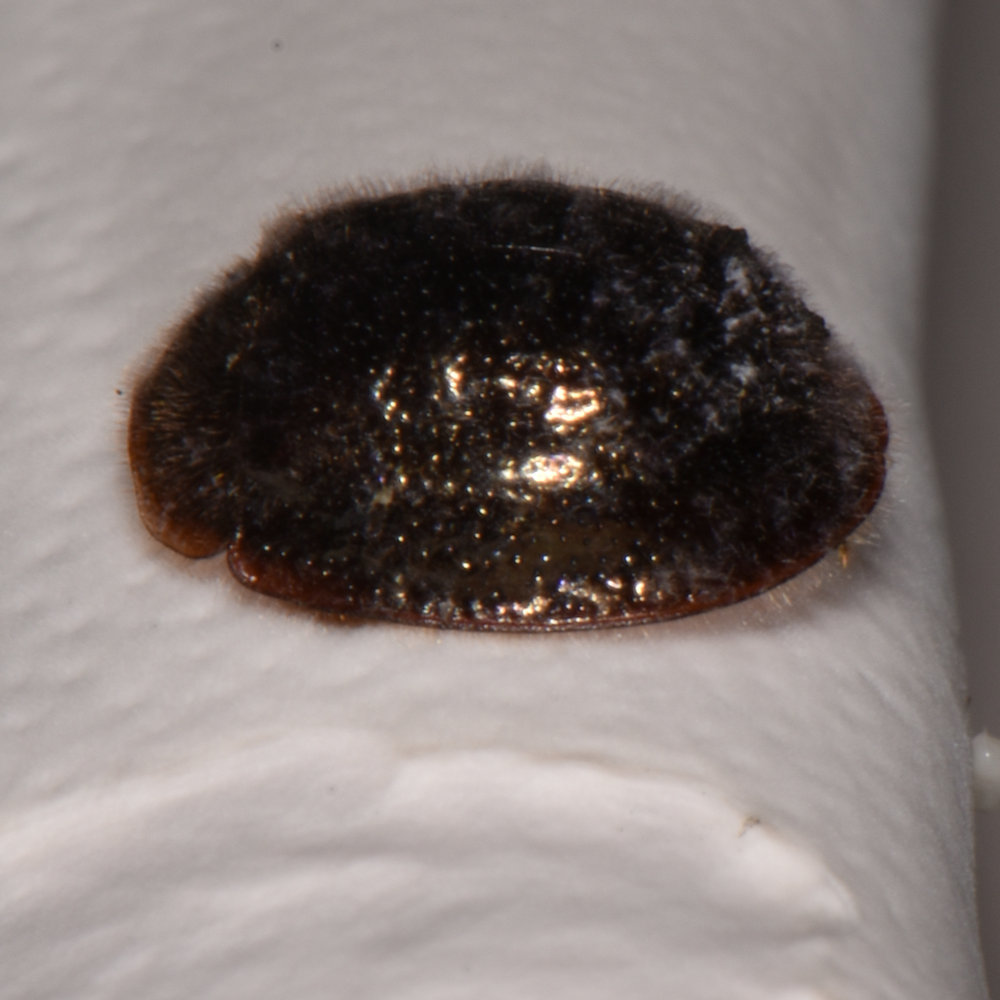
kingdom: Animalia
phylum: Arthropoda
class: Insecta
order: Coleoptera
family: Trogossitidae
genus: Thymalus
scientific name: Thymalus marginicollis
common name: Bark-gnawing beetle
